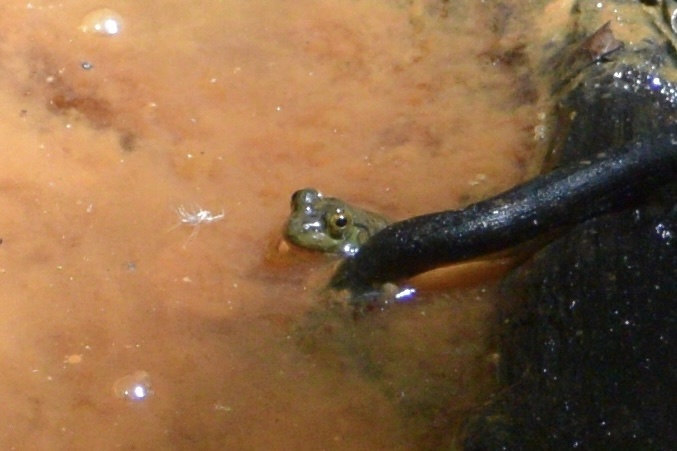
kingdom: Animalia
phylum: Chordata
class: Amphibia
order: Anura
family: Ranidae
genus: Lithobates
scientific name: Lithobates catesbeianus
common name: American bullfrog
